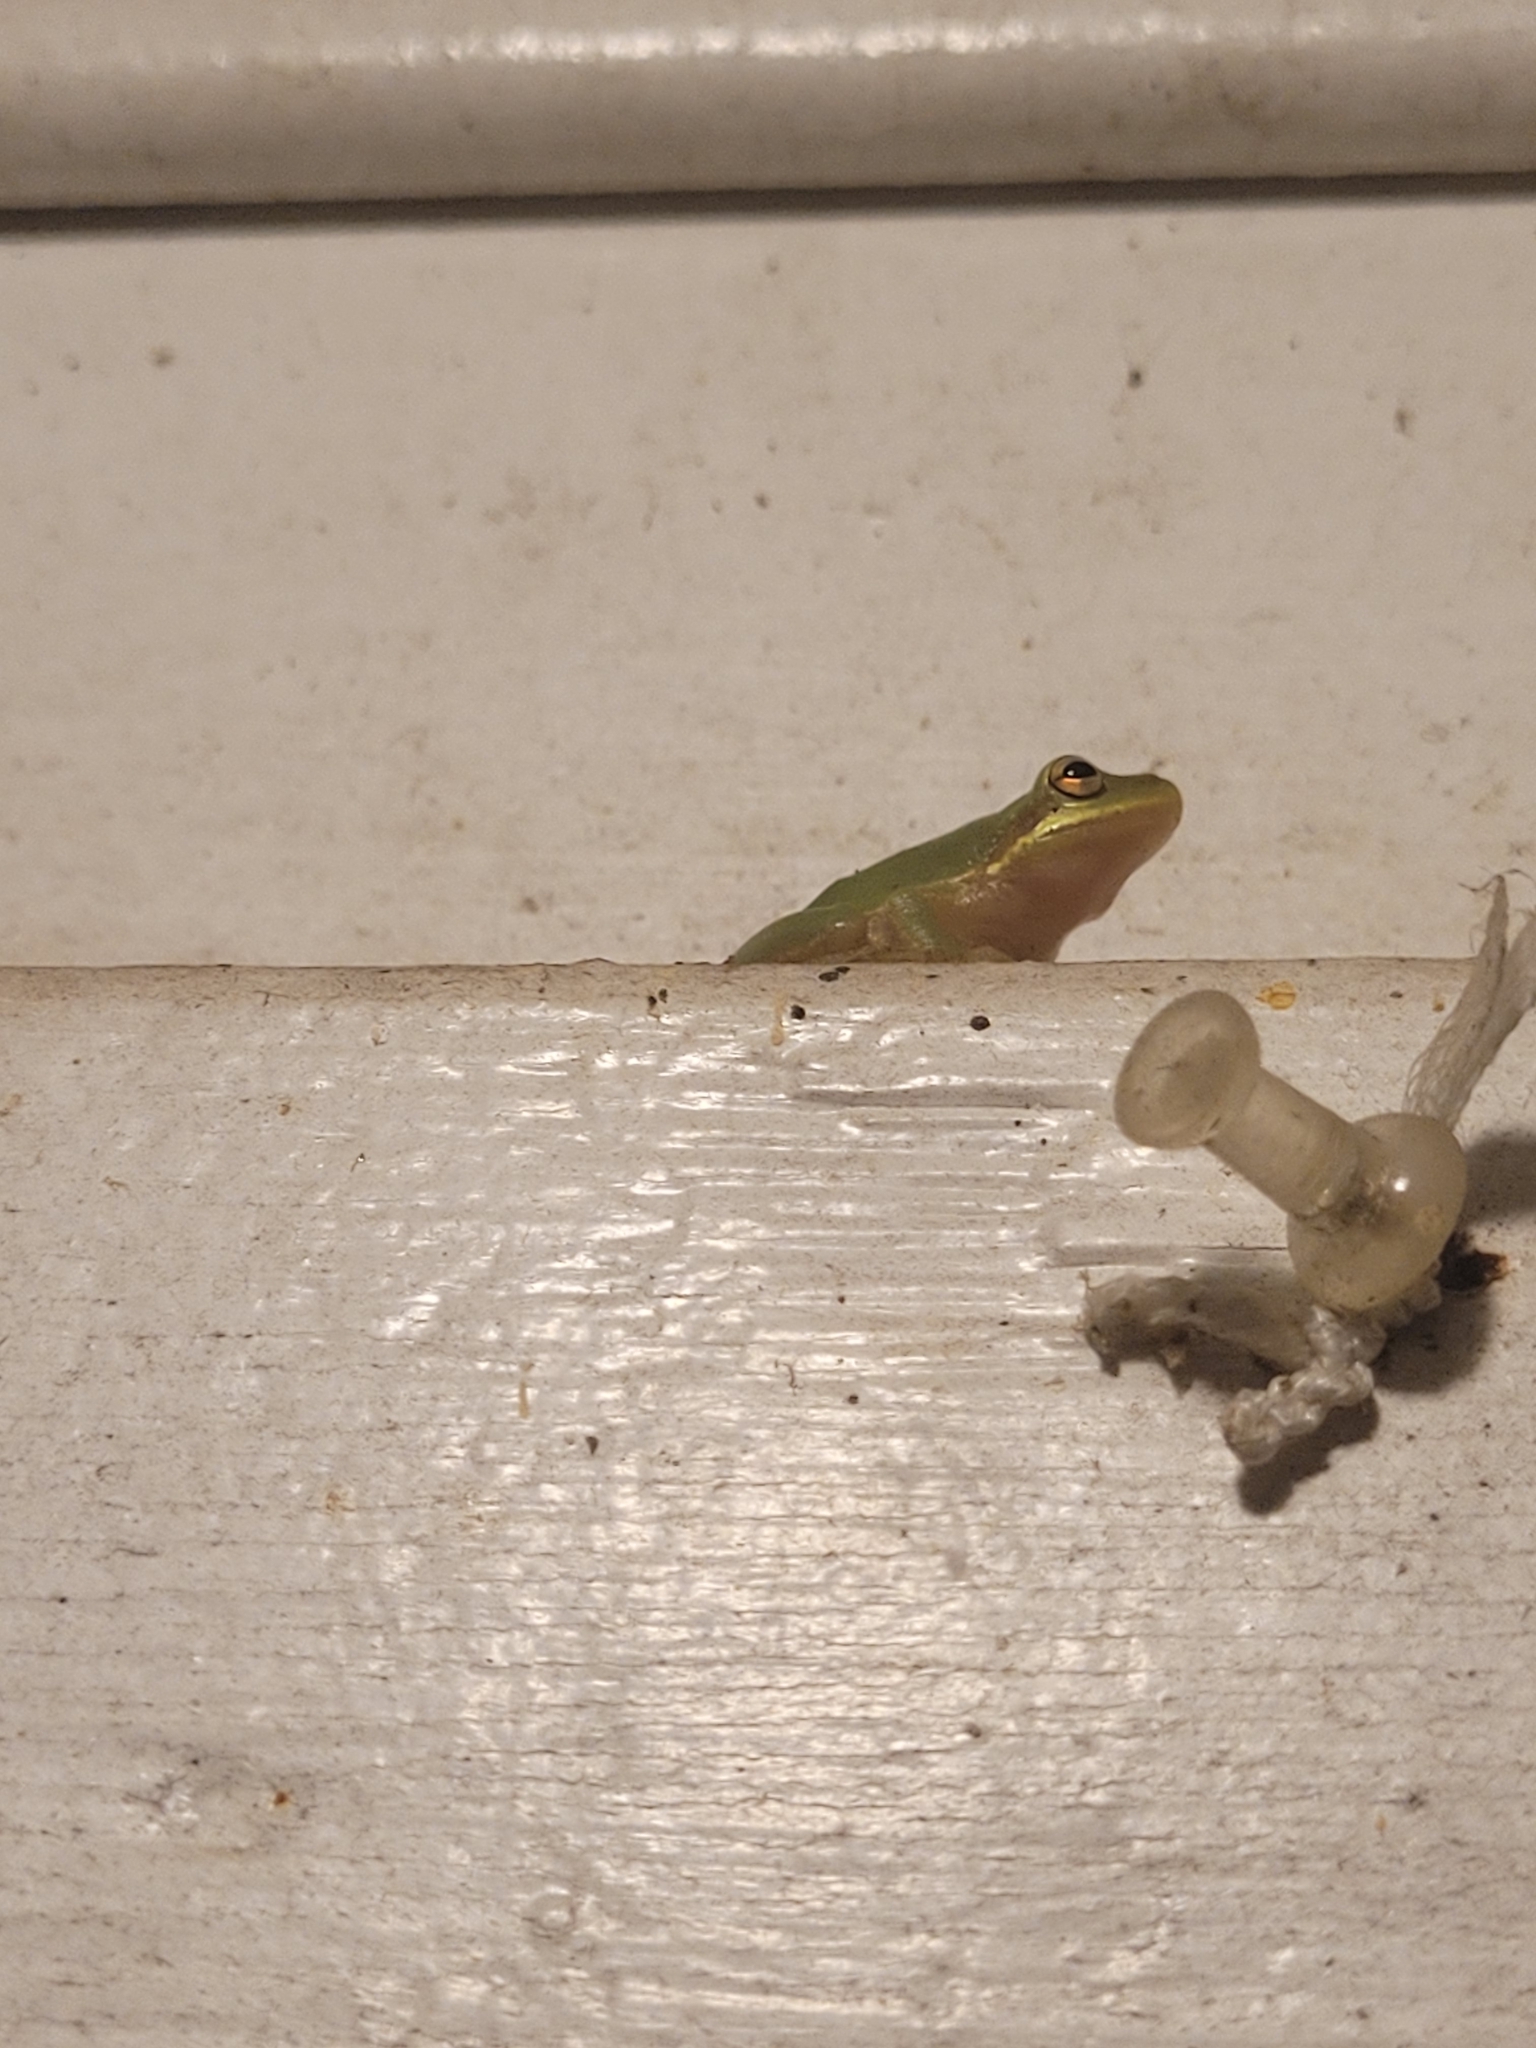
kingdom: Animalia
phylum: Chordata
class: Amphibia
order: Anura
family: Hylidae
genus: Dryophytes
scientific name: Dryophytes squirellus
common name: Squirrel treefrog
